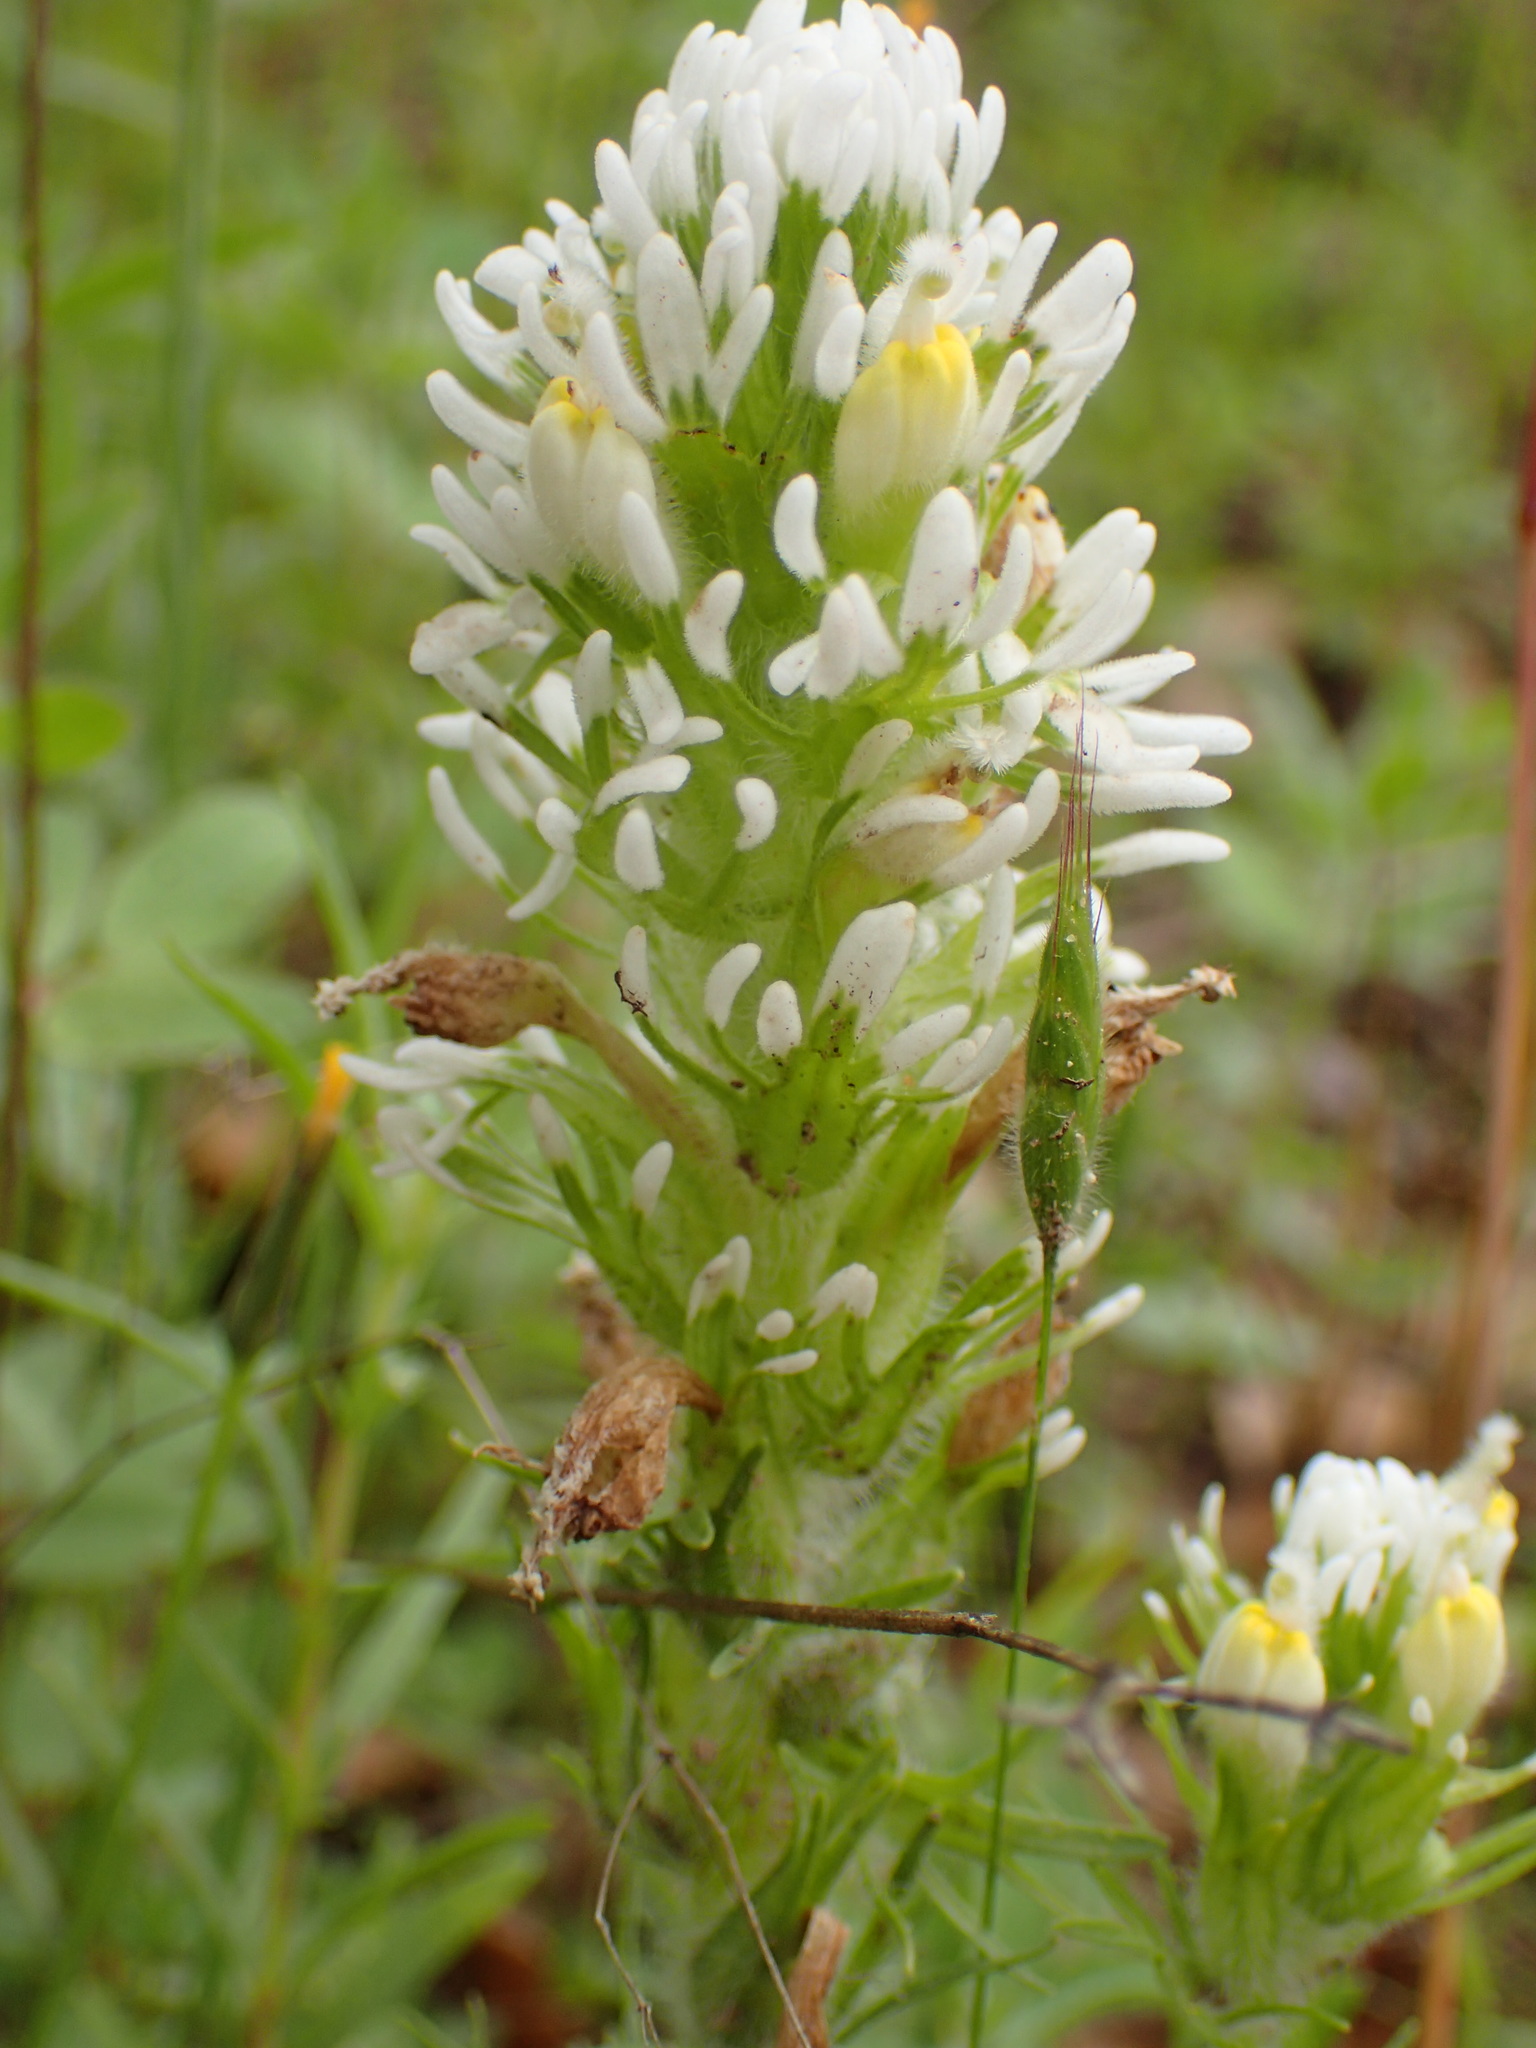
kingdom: Plantae
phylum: Tracheophyta
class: Magnoliopsida
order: Lamiales
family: Orobanchaceae
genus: Castilleja
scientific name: Castilleja exserta
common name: Purple owl-clover
